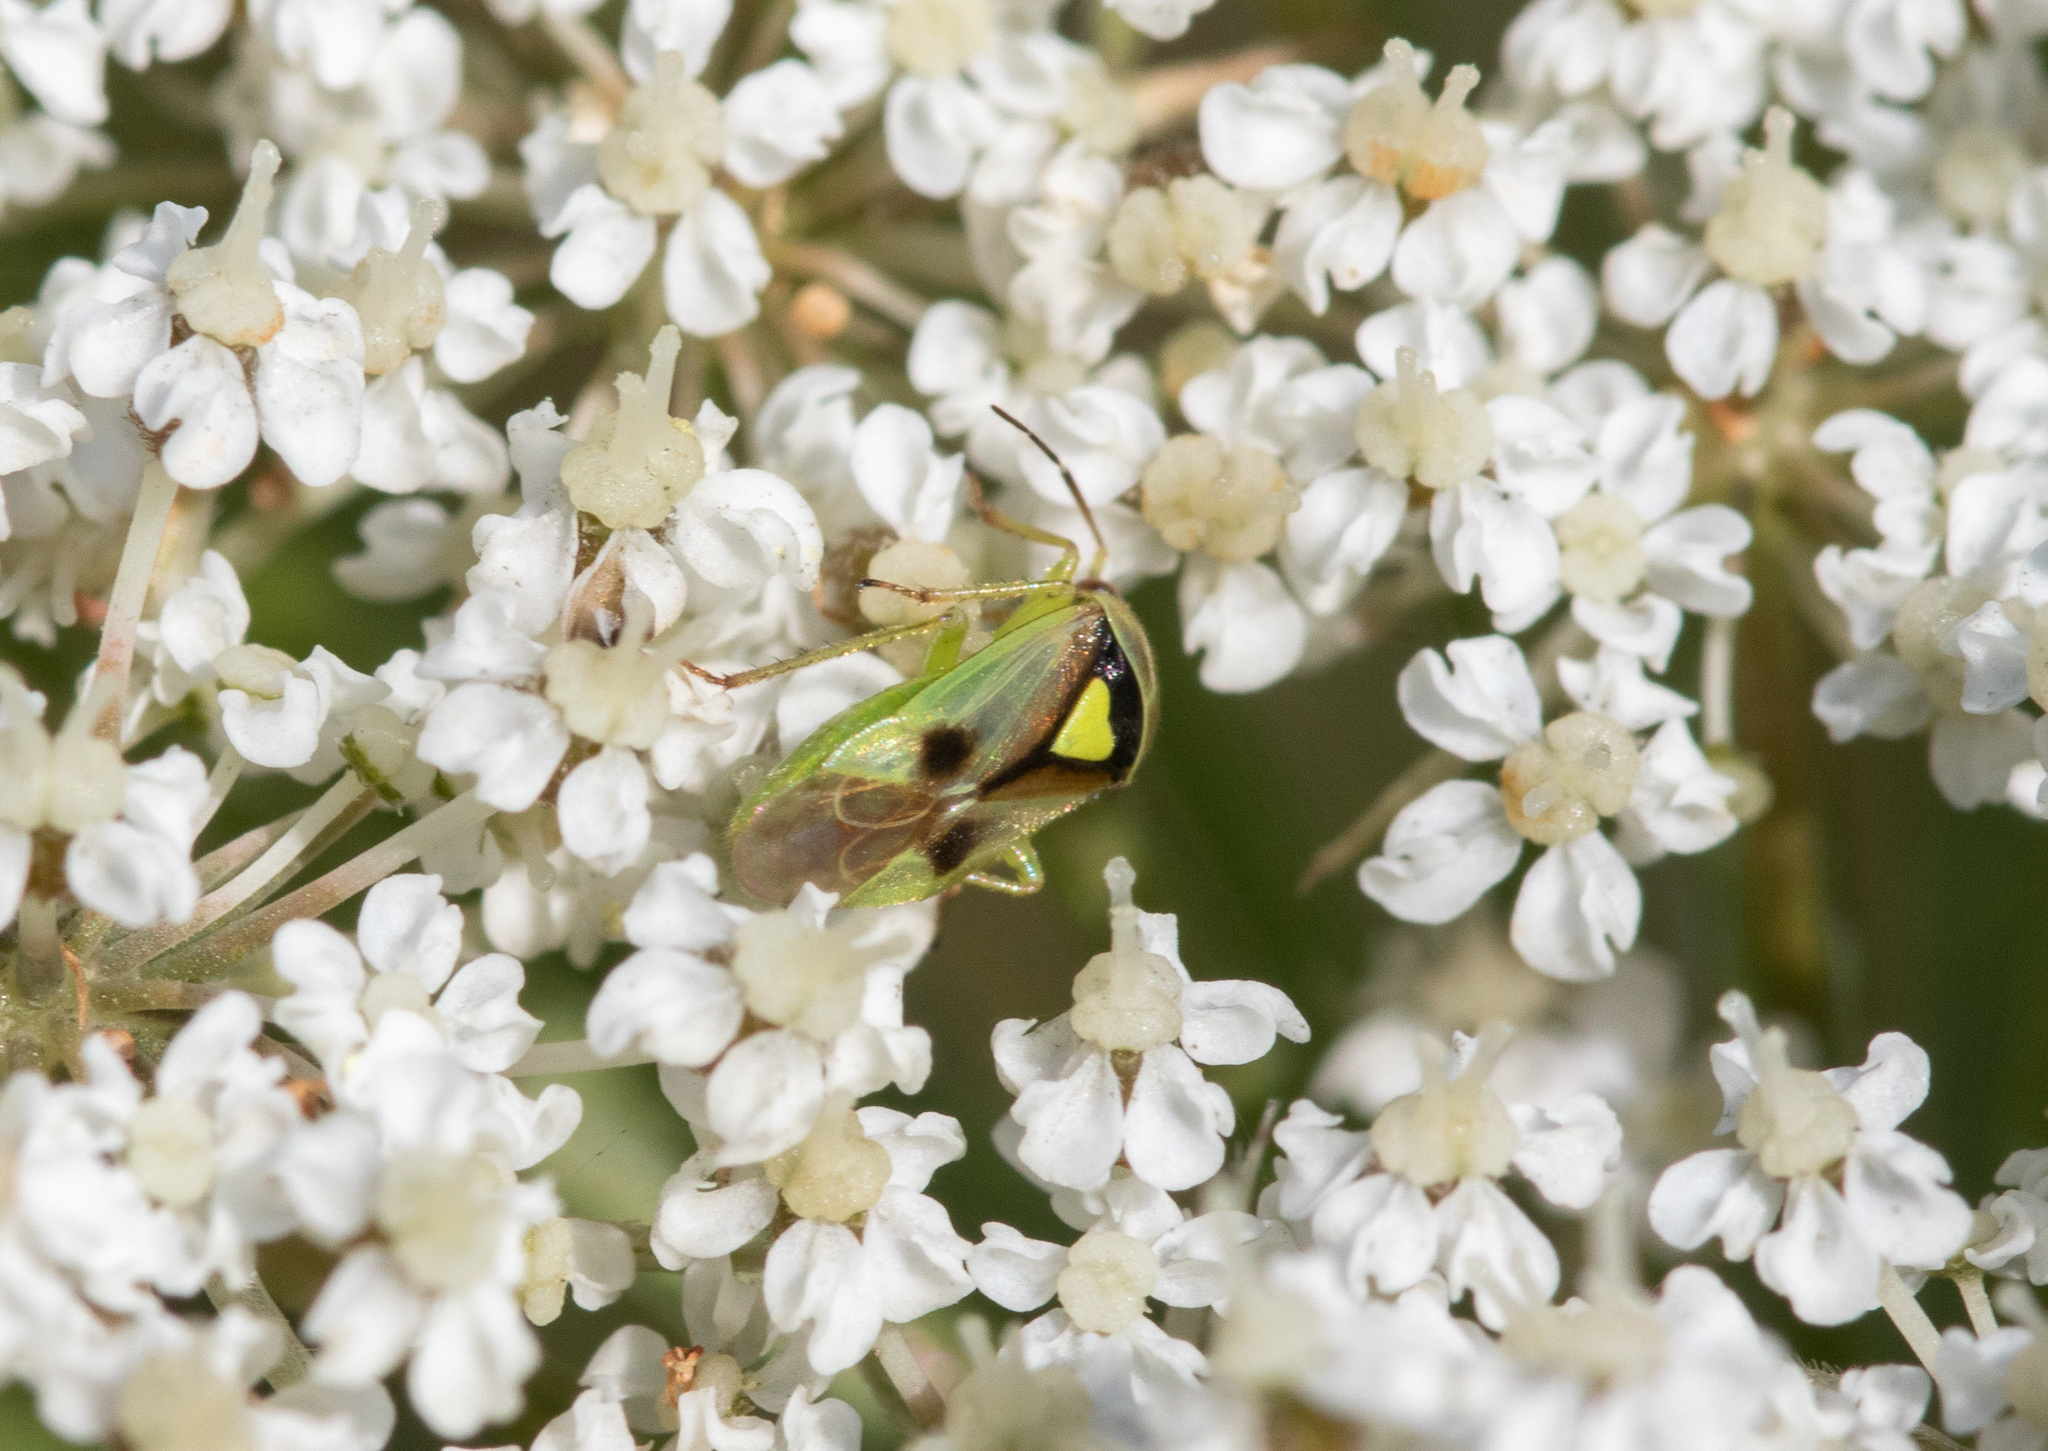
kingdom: Animalia
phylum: Arthropoda
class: Insecta
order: Hemiptera
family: Miridae
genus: Orthops
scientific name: Orthops campestris
